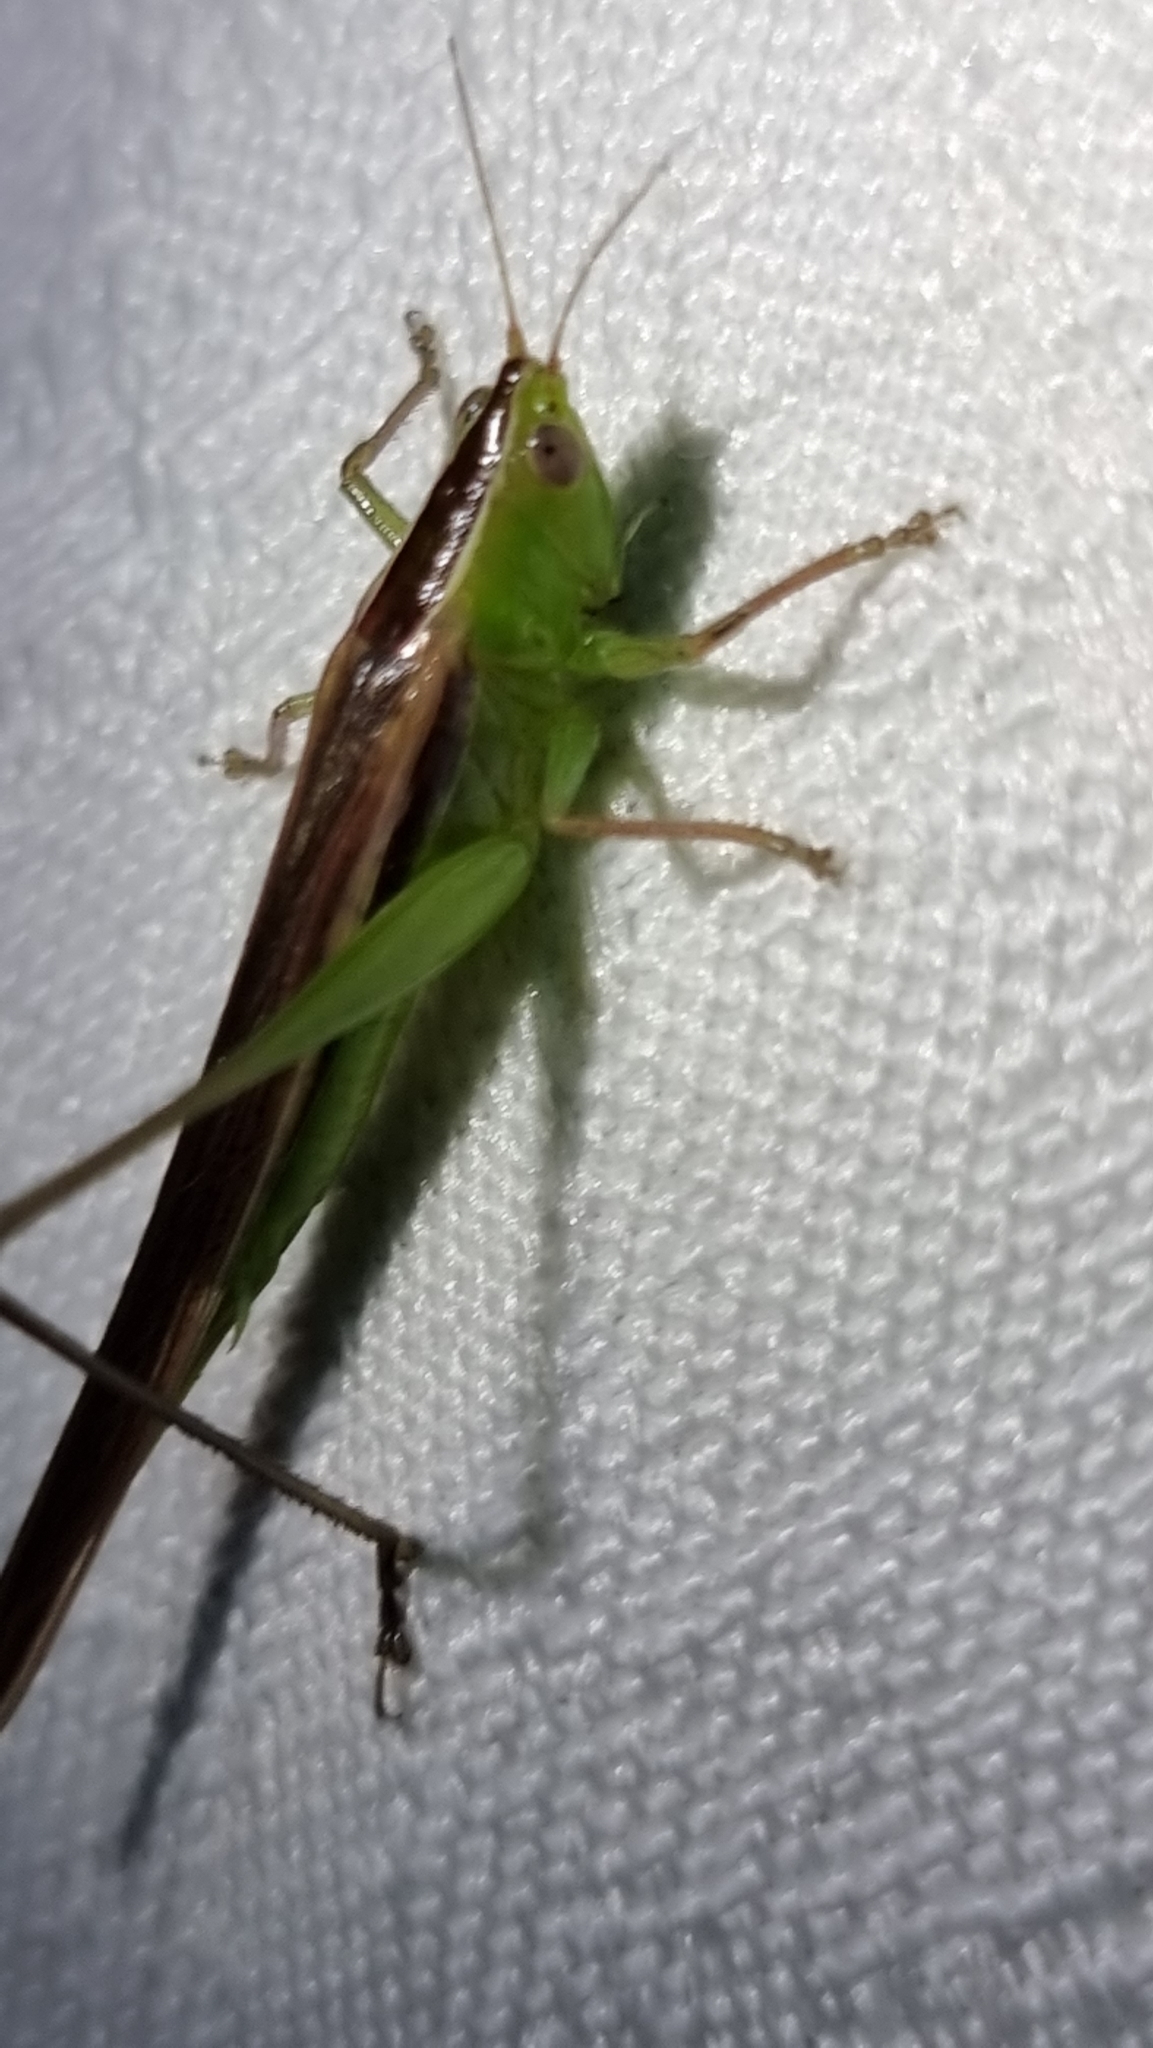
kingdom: Animalia
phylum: Arthropoda
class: Insecta
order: Orthoptera
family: Tettigoniidae
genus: Conocephalus
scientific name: Conocephalus upoluensis
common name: Upolu meadow katydid
